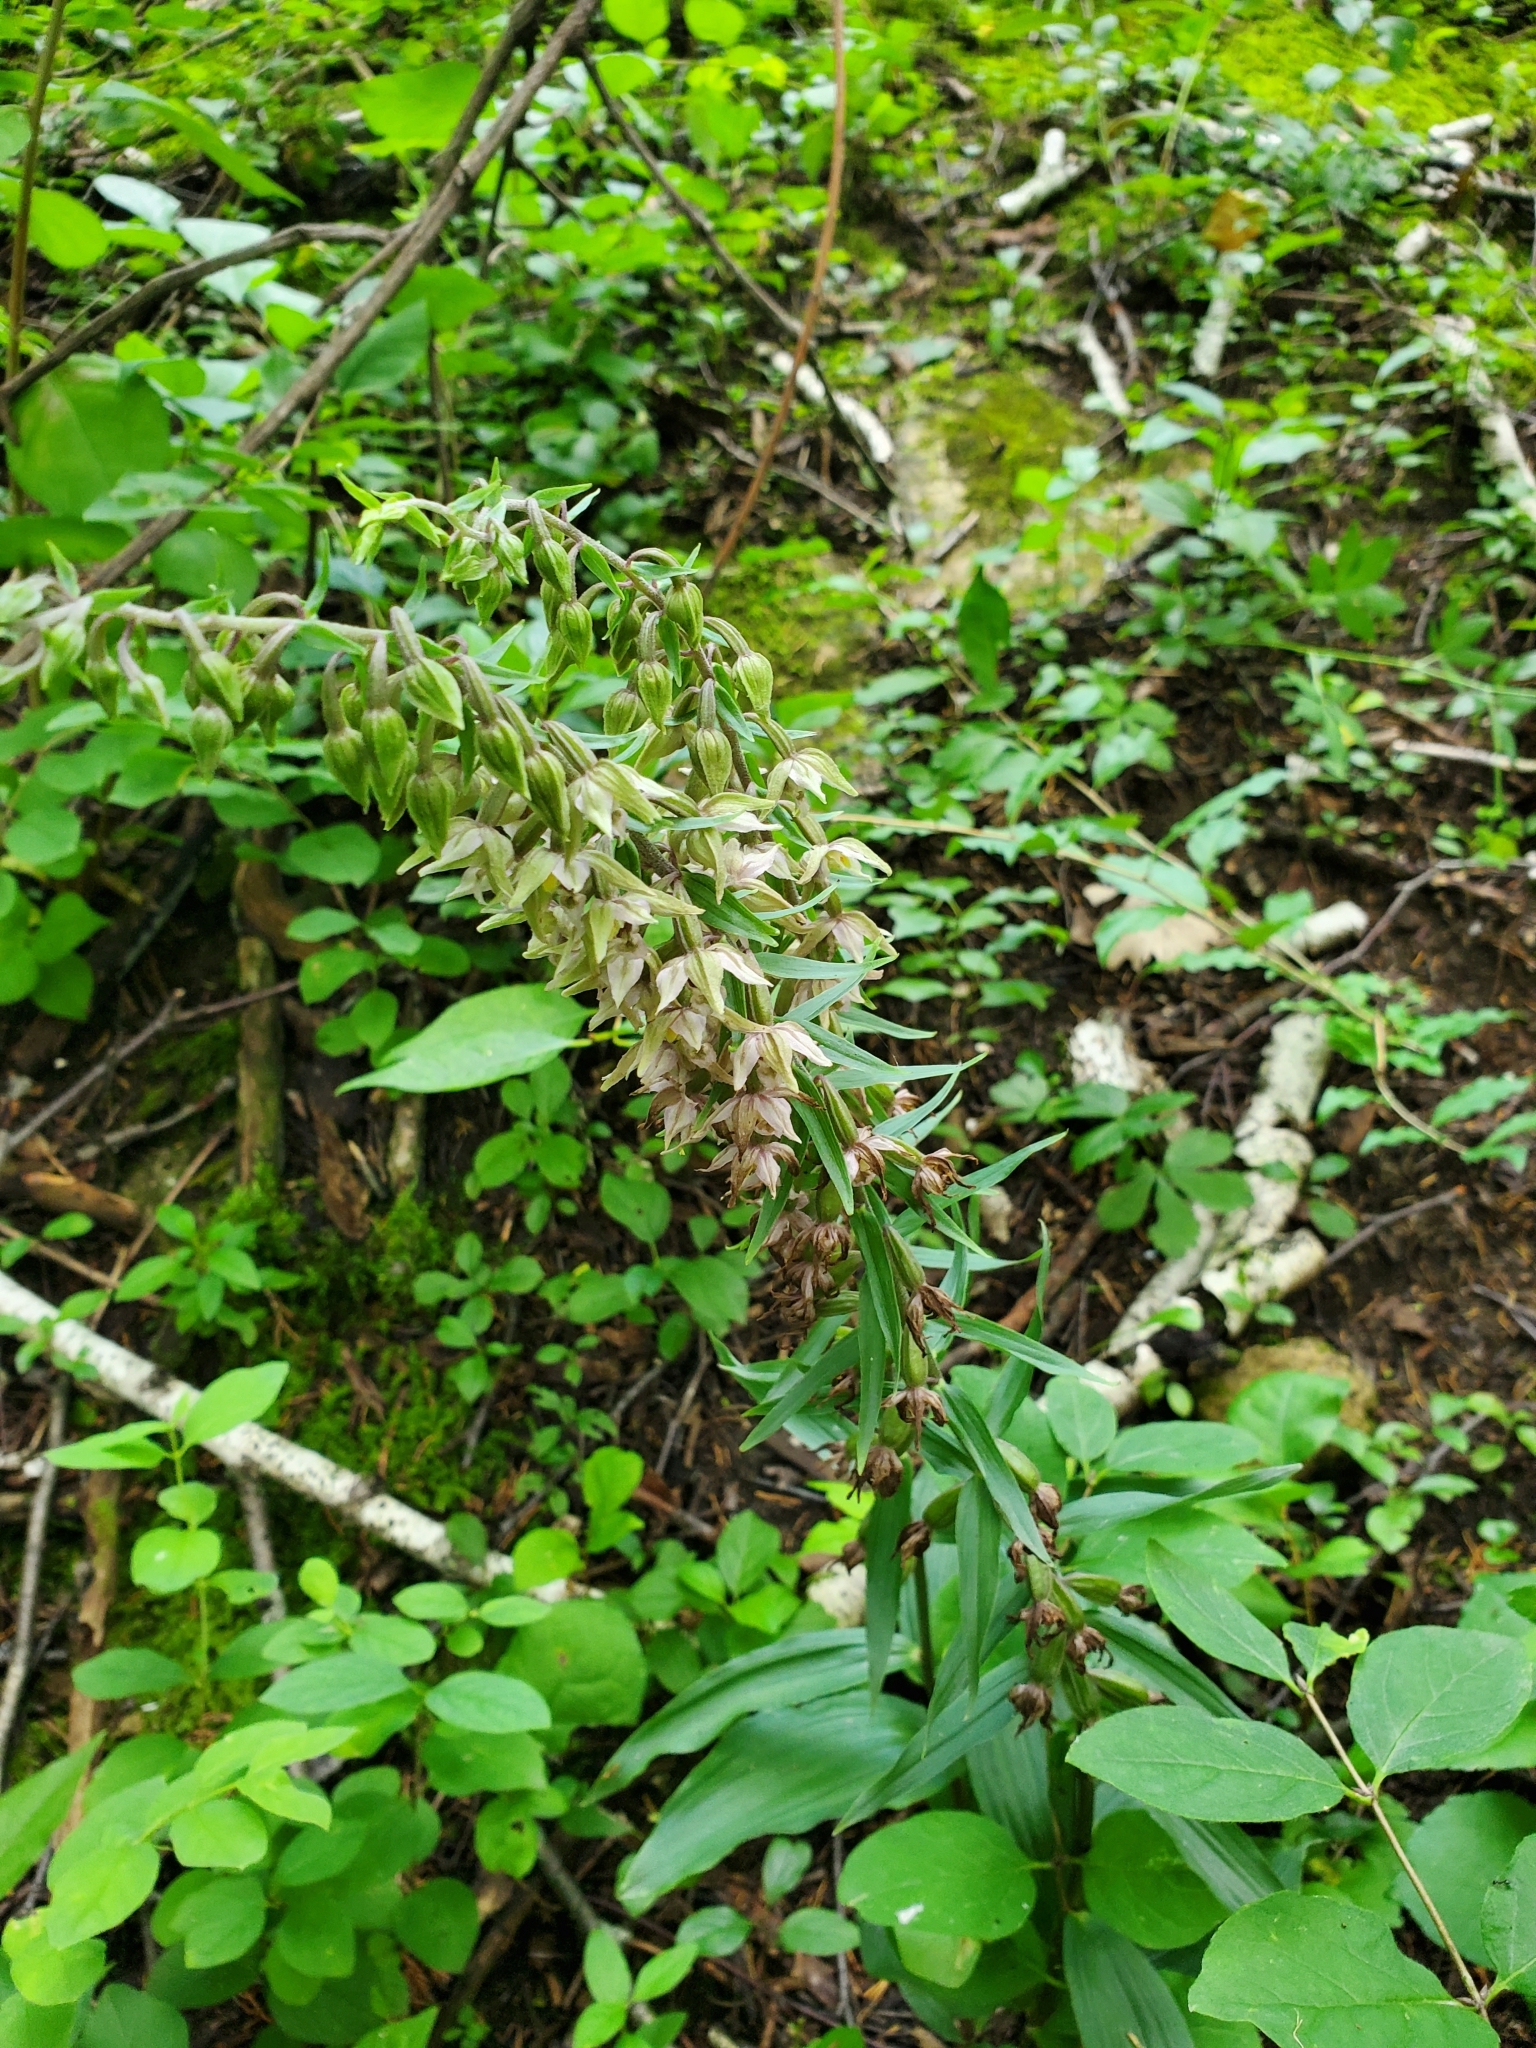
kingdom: Plantae
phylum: Tracheophyta
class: Liliopsida
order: Asparagales
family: Orchidaceae
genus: Epipactis
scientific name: Epipactis helleborine
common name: Broad-leaved helleborine
